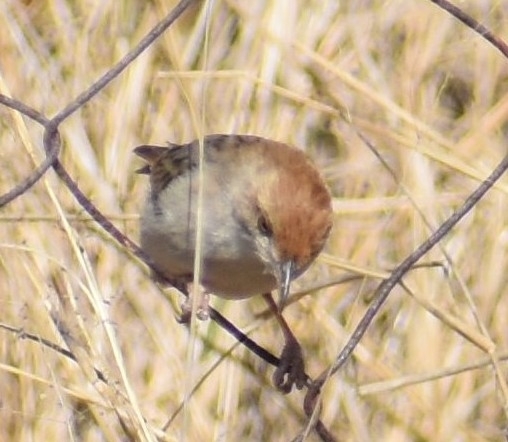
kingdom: Animalia
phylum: Chordata
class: Aves
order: Passeriformes
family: Cisticolidae
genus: Cisticola
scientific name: Cisticola chiniana
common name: Rattling cisticola
